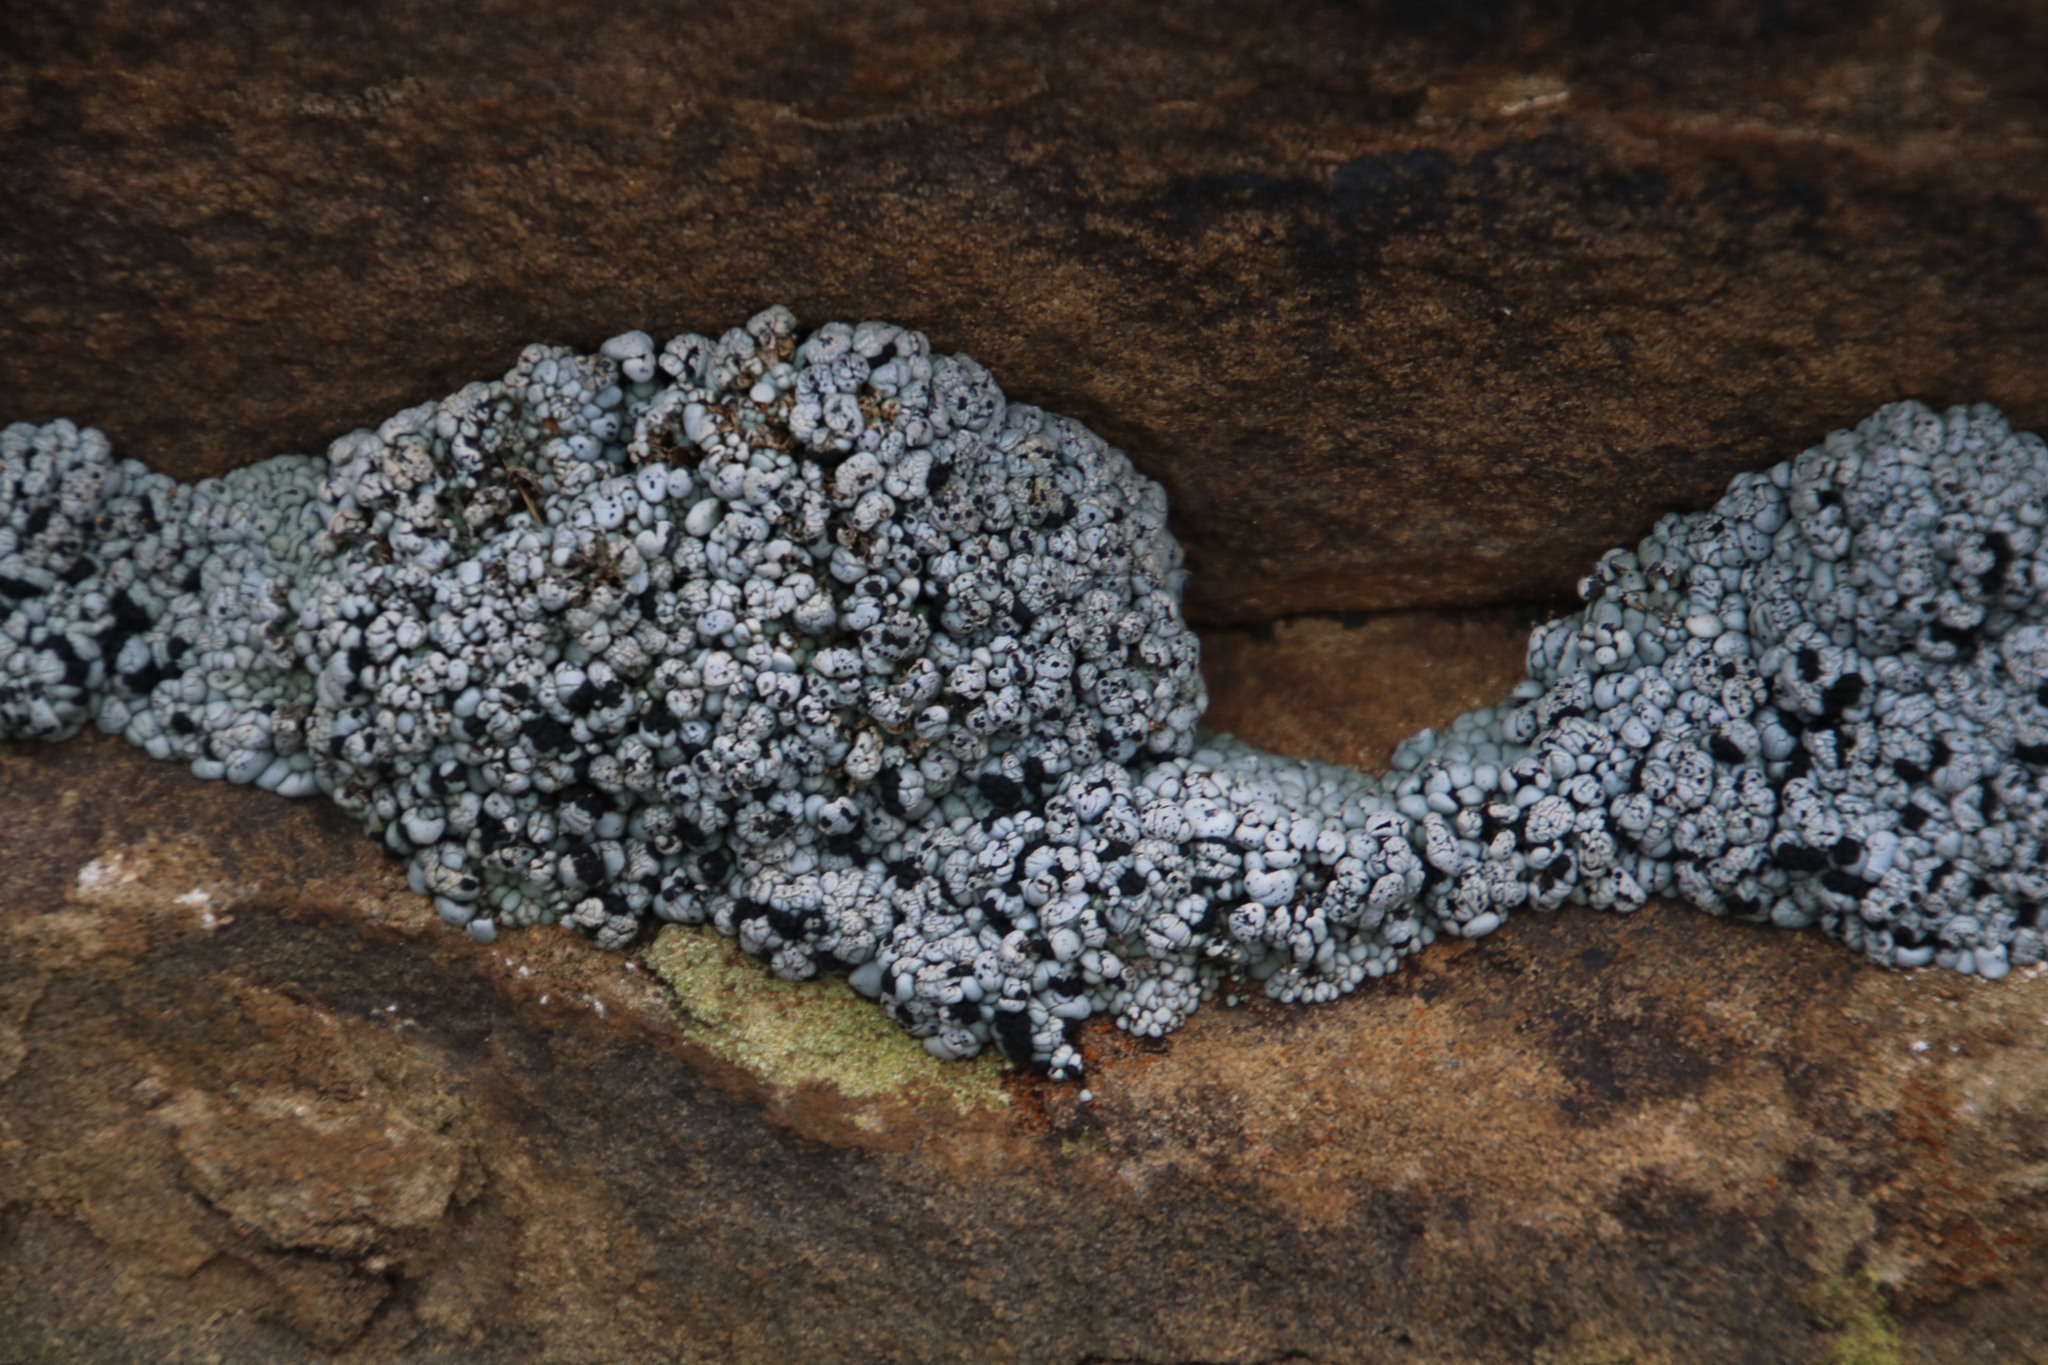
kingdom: Fungi
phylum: Ascomycota
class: Lecanoromycetes
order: Lecanorales
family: Ramalinaceae
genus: Rolfidium
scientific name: Rolfidium bumammum
